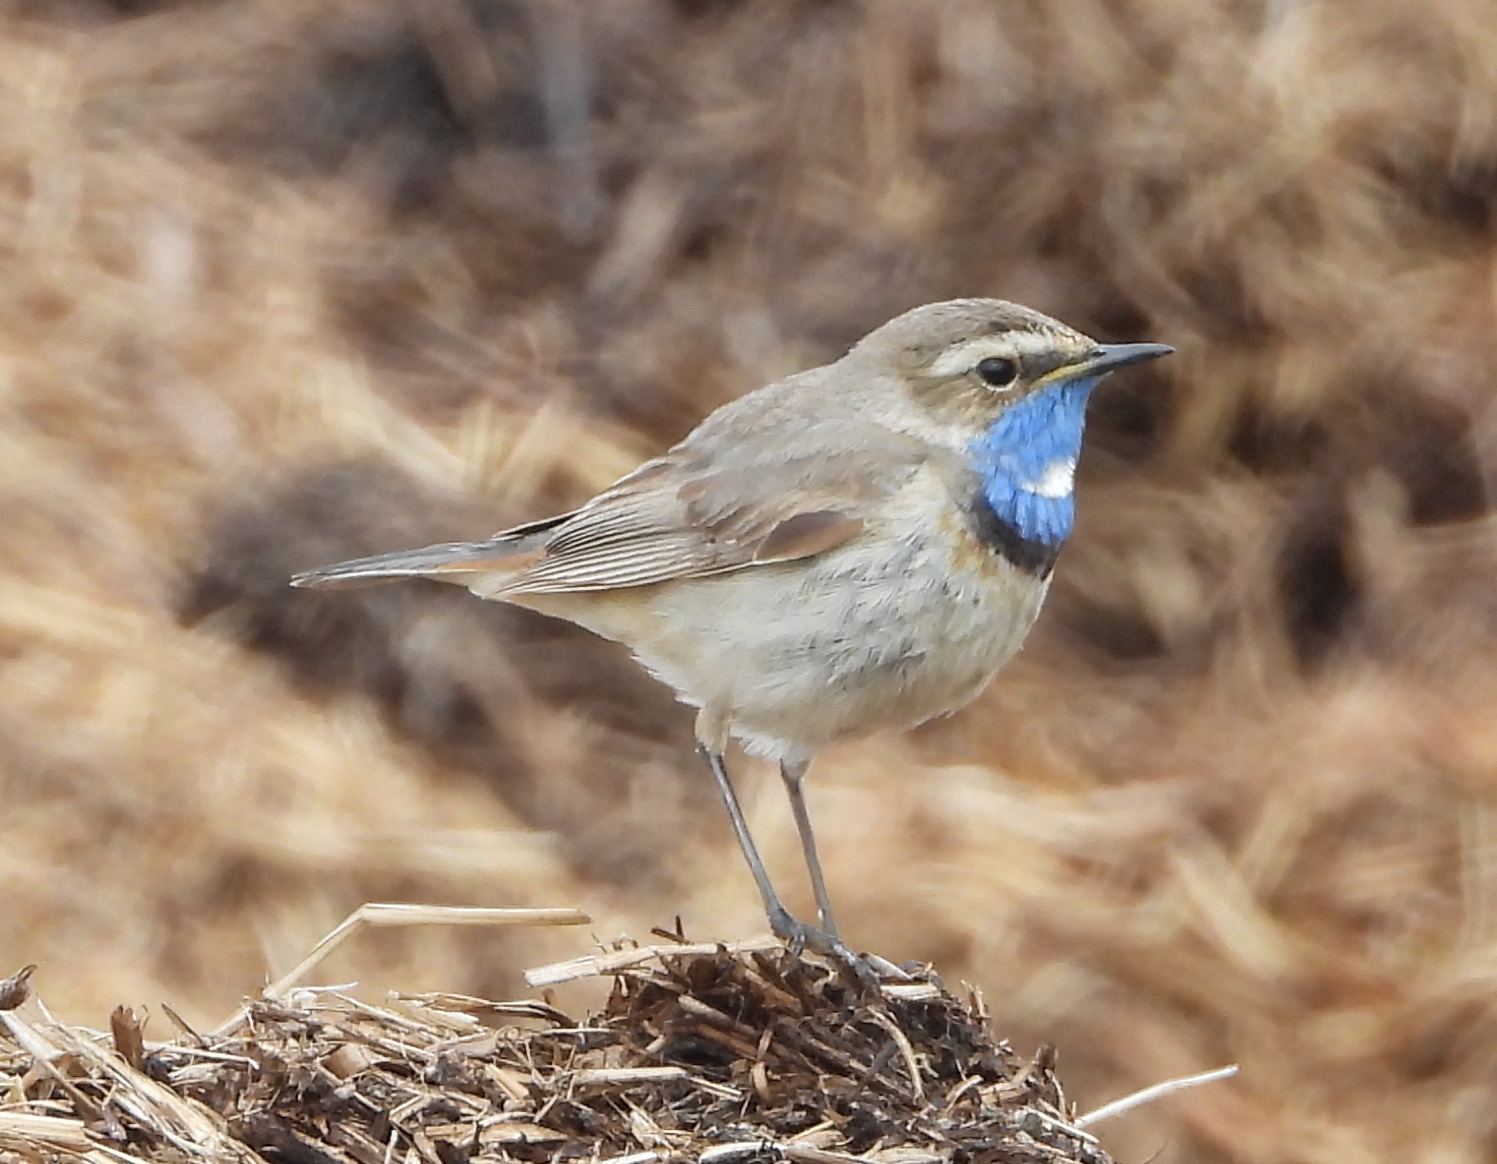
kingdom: Animalia
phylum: Chordata
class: Aves
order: Passeriformes
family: Muscicapidae
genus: Luscinia
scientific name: Luscinia svecica
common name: Bluethroat
